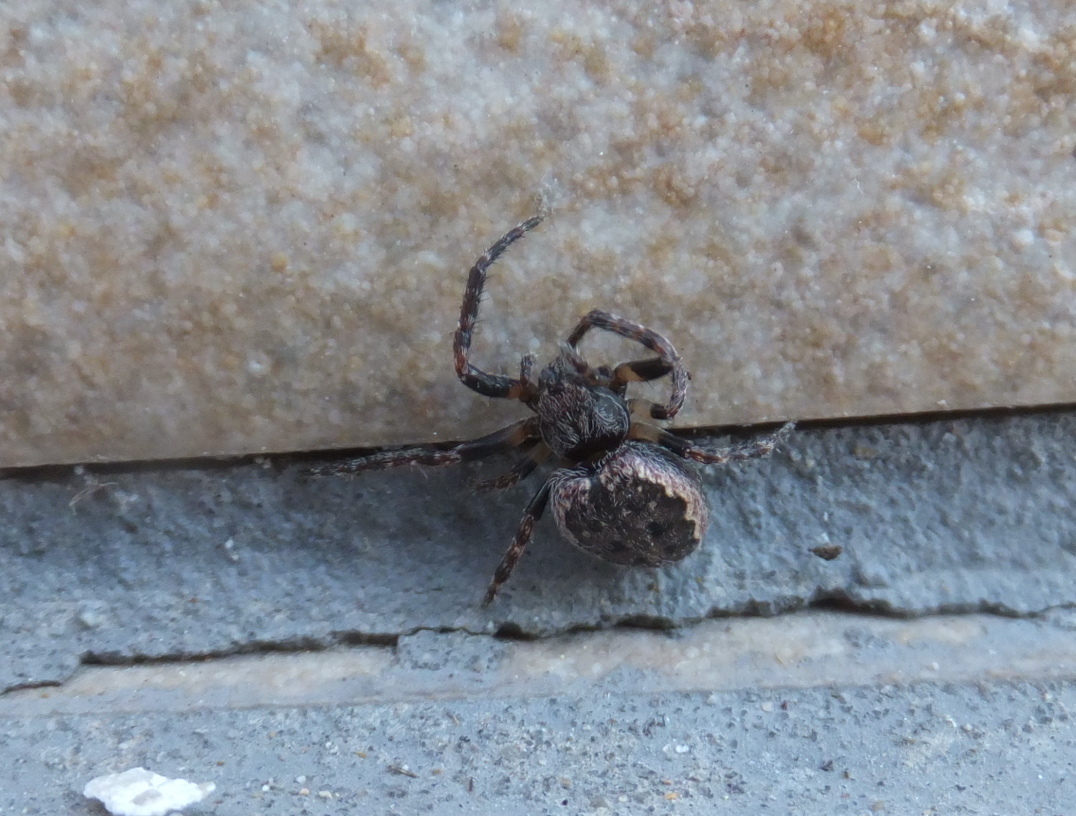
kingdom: Animalia
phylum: Arthropoda
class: Arachnida
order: Araneae
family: Araneidae
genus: Nuctenea
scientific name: Nuctenea umbratica
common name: Toad spider
